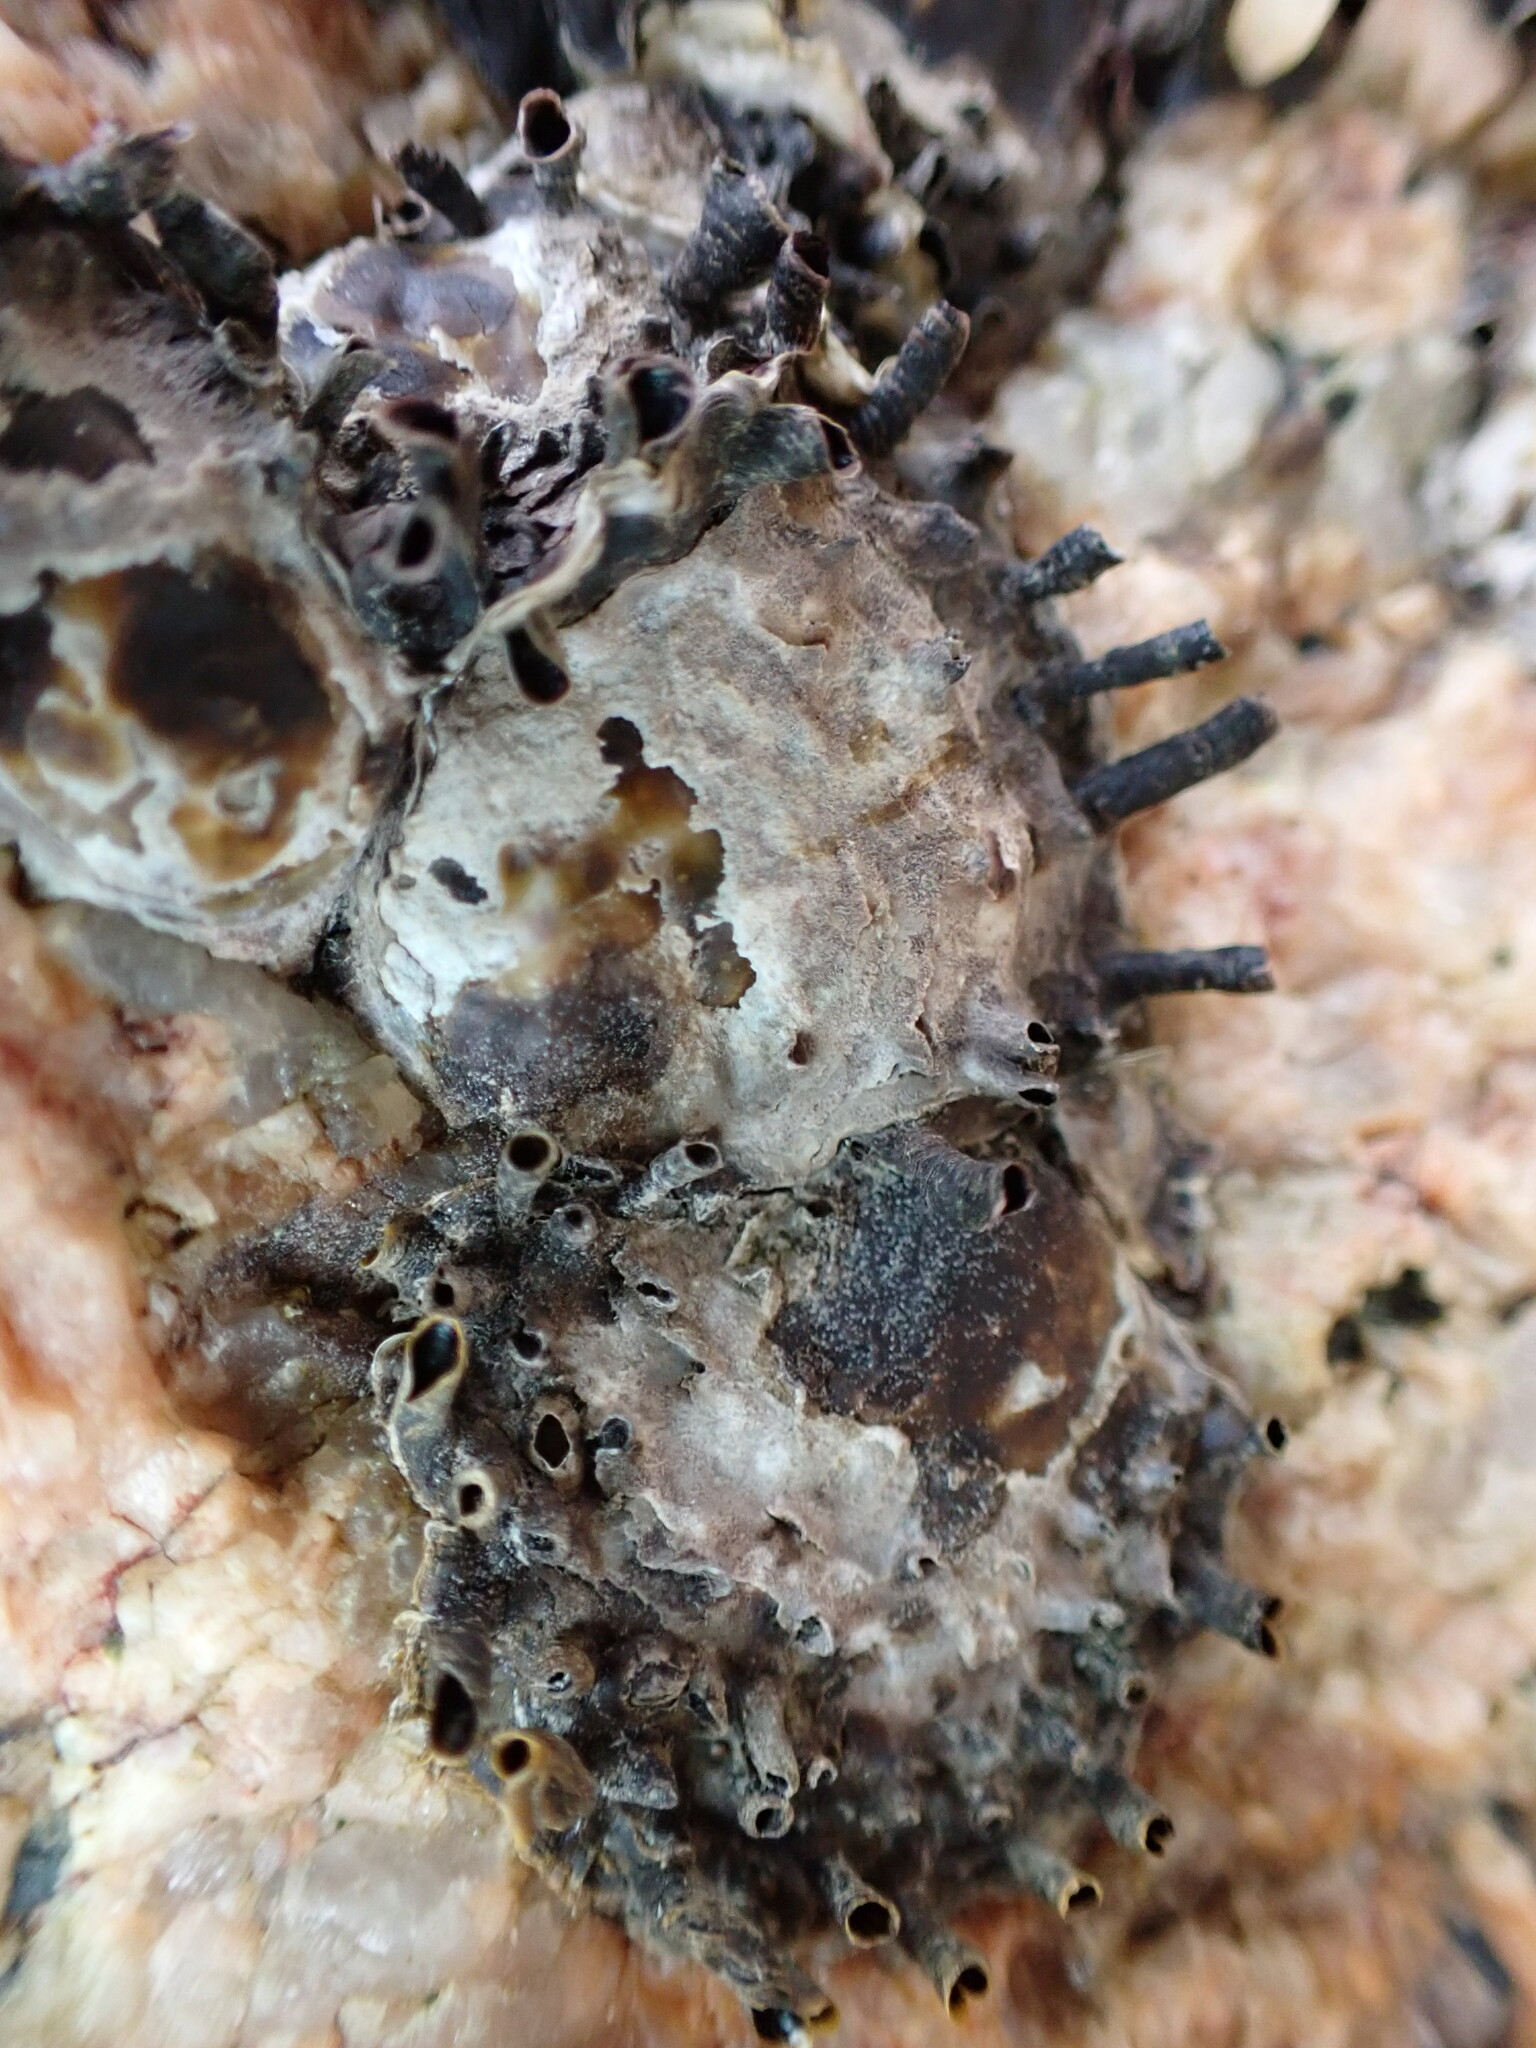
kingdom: Animalia
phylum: Mollusca
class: Bivalvia
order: Ostreida
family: Ostreidae
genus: Saccostrea
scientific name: Saccostrea cuccullata
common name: Natal rock oyster
